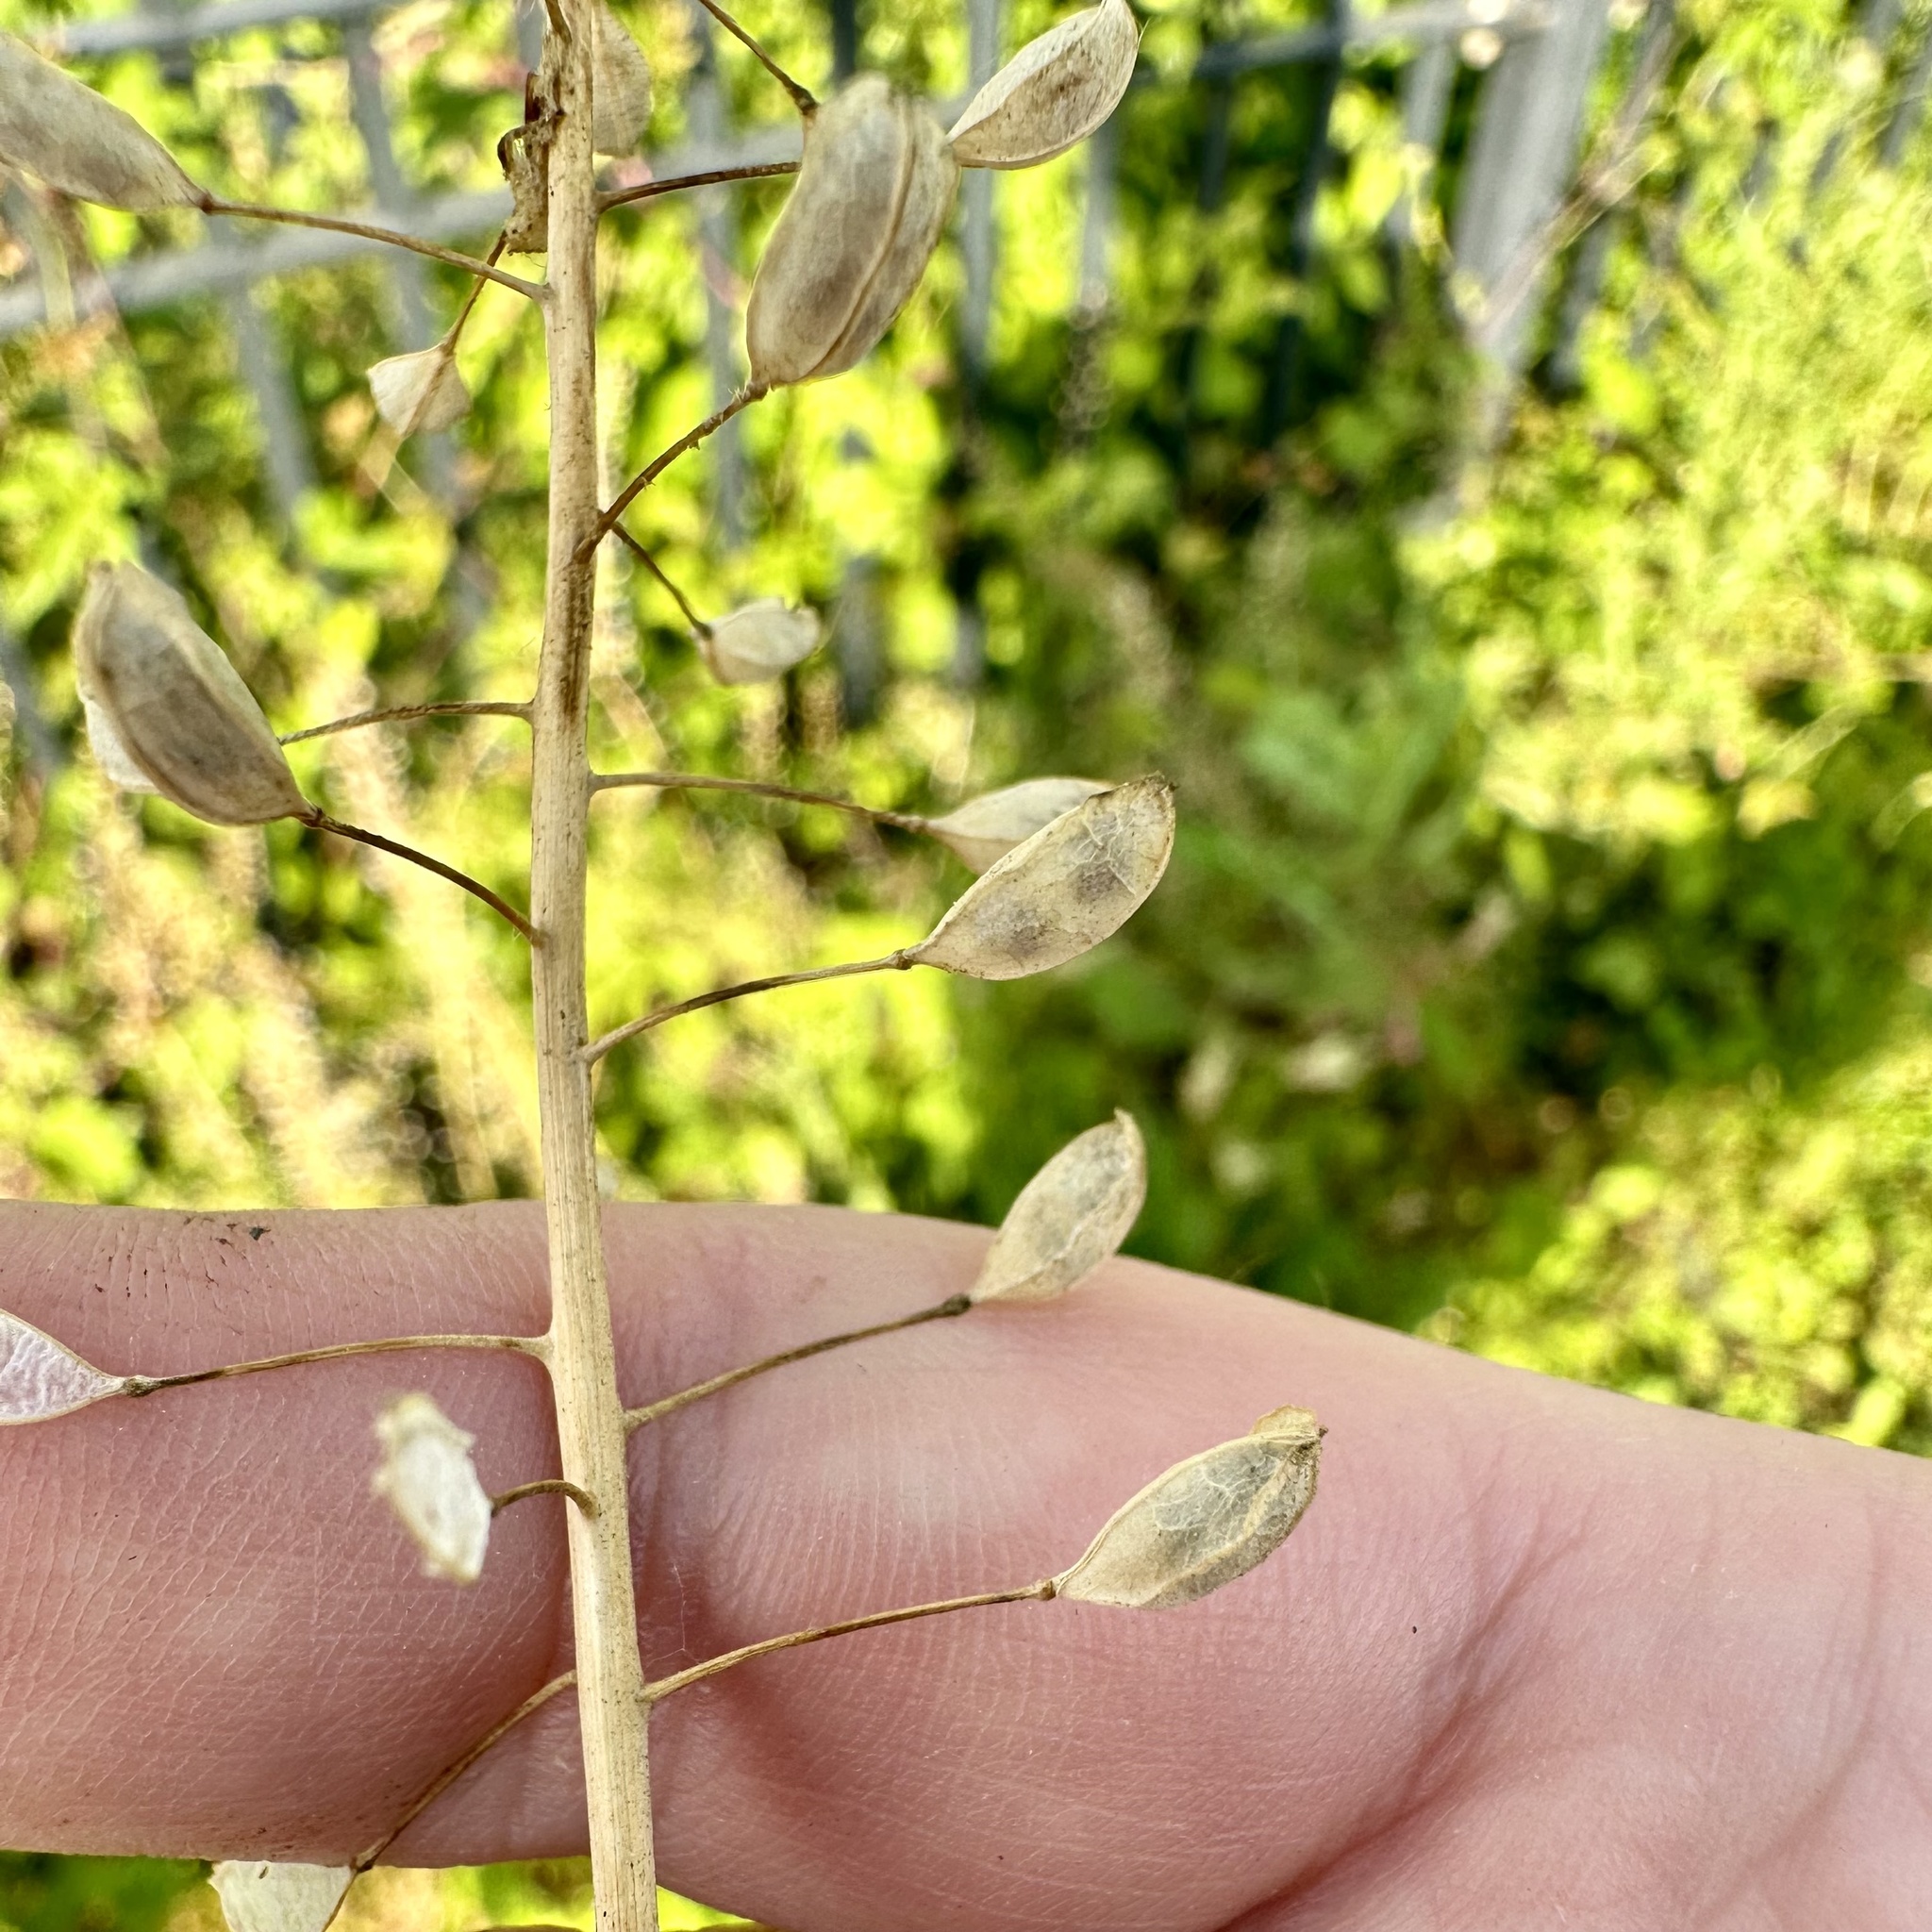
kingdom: Plantae
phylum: Tracheophyta
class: Magnoliopsida
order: Brassicales
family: Brassicaceae
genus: Mummenhoffia
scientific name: Mummenhoffia alliacea
